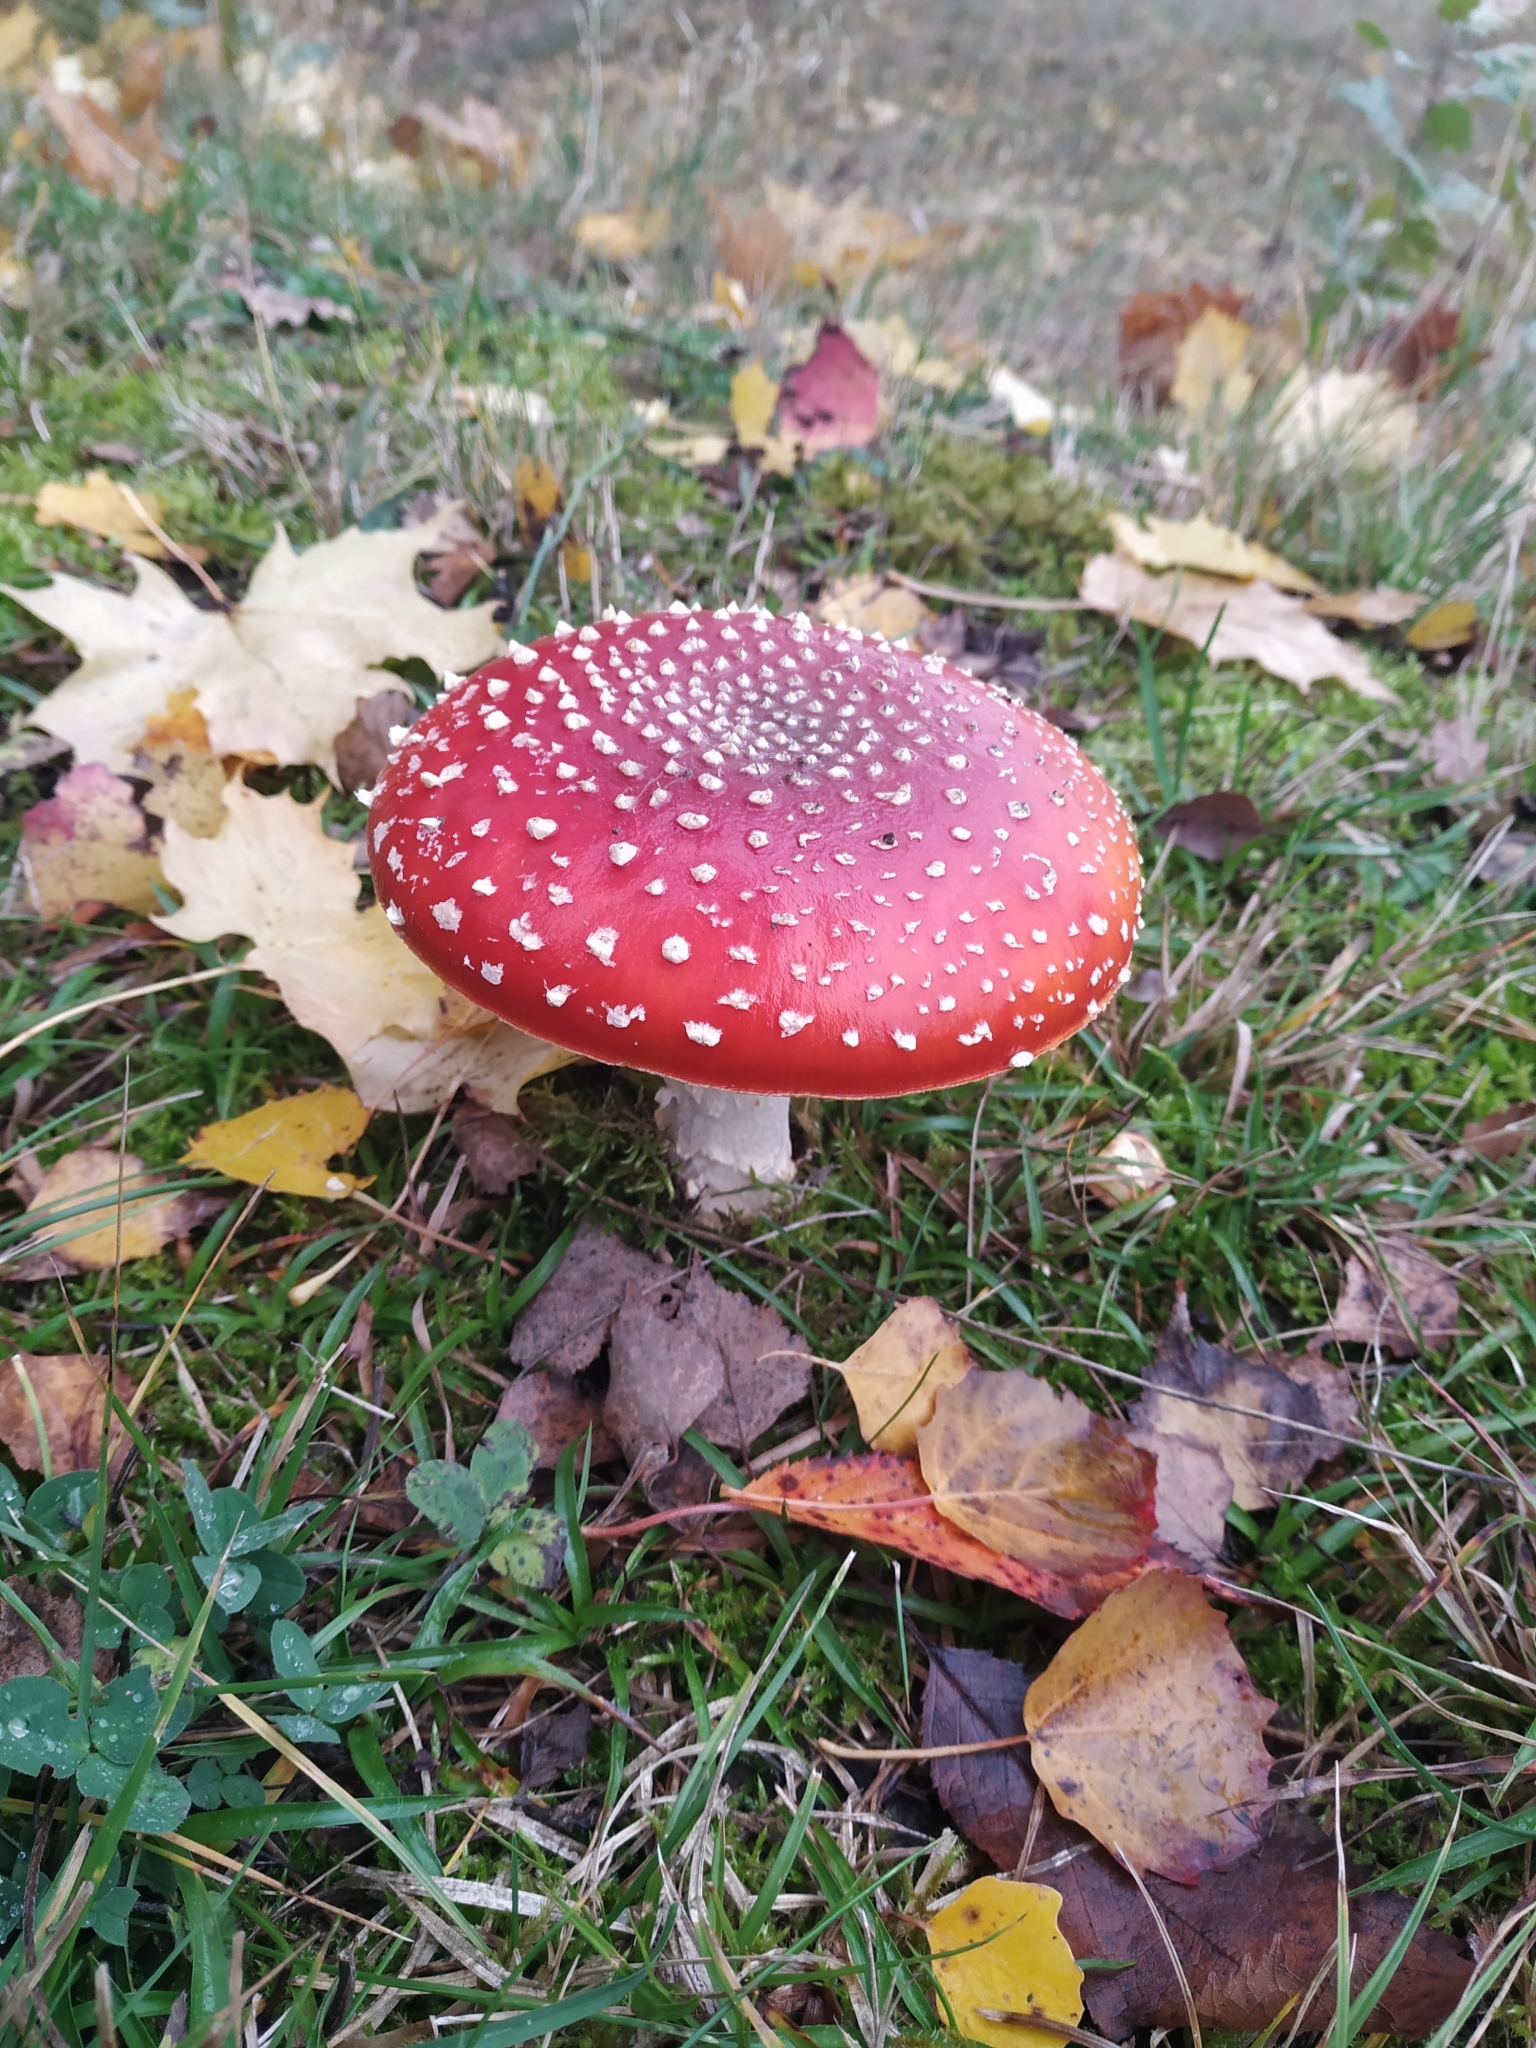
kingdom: Fungi
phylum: Basidiomycota
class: Agaricomycetes
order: Agaricales
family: Amanitaceae
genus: Amanita
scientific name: Amanita muscaria
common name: Fly agaric
